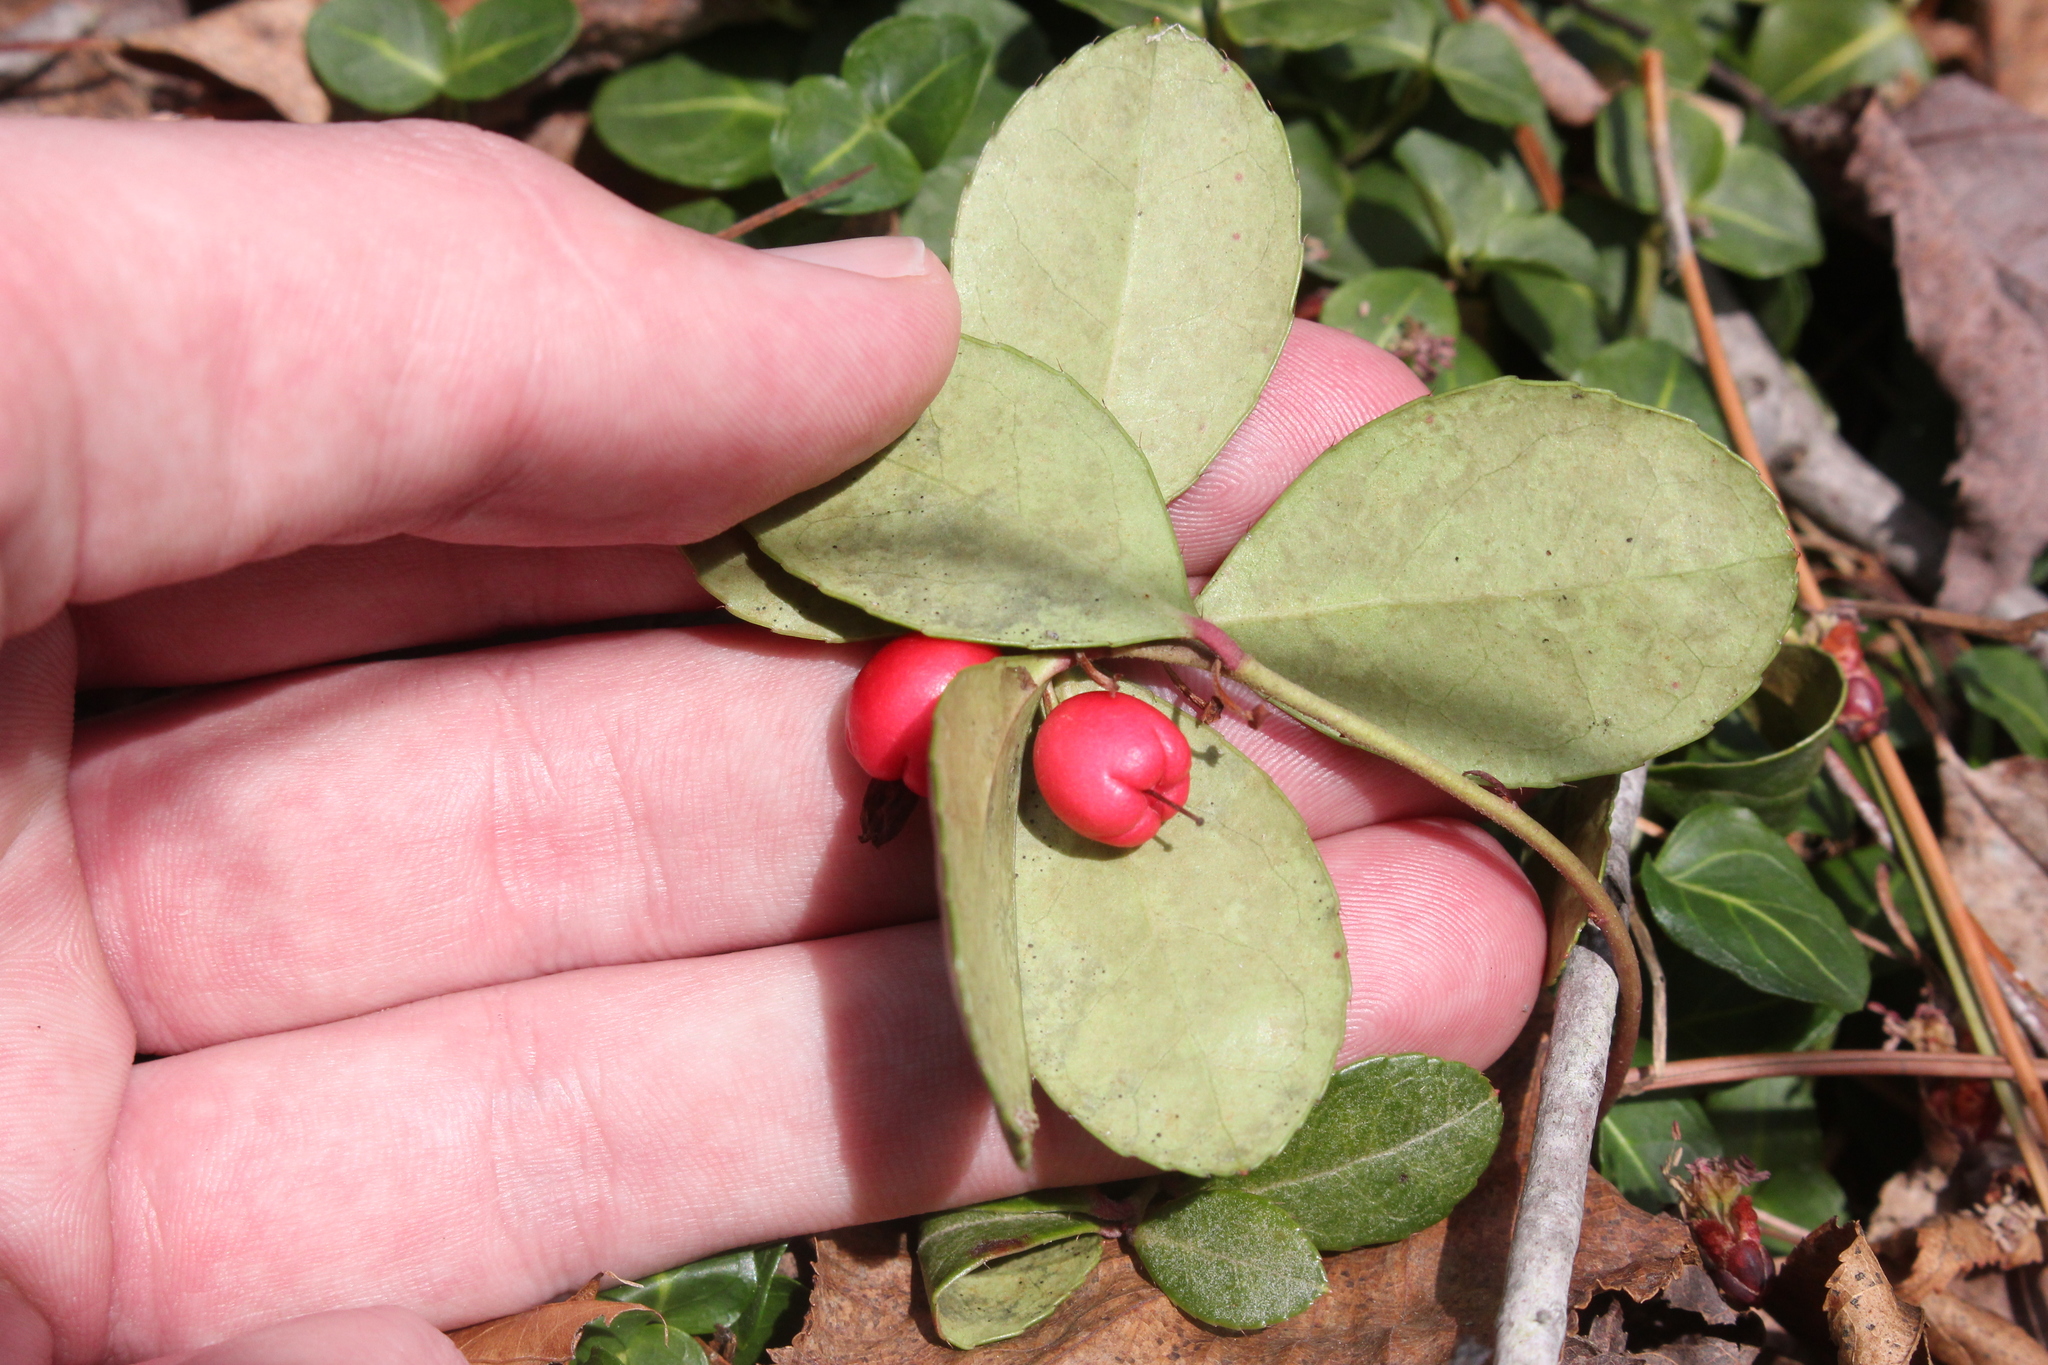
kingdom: Plantae
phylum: Tracheophyta
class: Magnoliopsida
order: Ericales
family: Ericaceae
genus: Gaultheria
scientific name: Gaultheria procumbens
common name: Checkerberry
